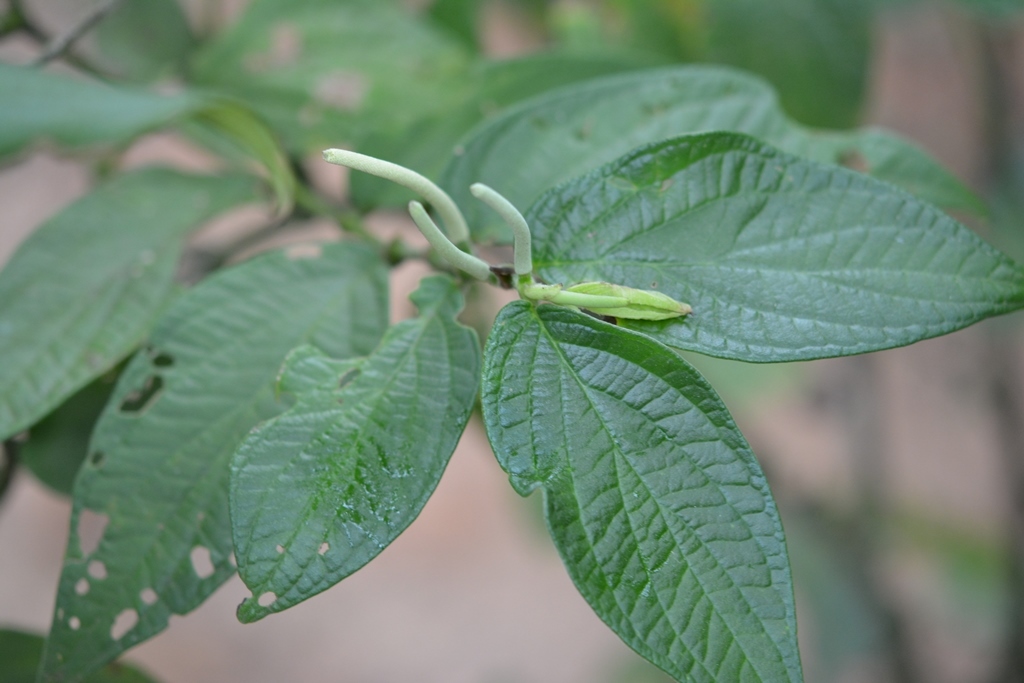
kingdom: Plantae
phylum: Tracheophyta
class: Magnoliopsida
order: Piperales
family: Piperaceae
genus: Piper
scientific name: Piper pseudoasperifolium
